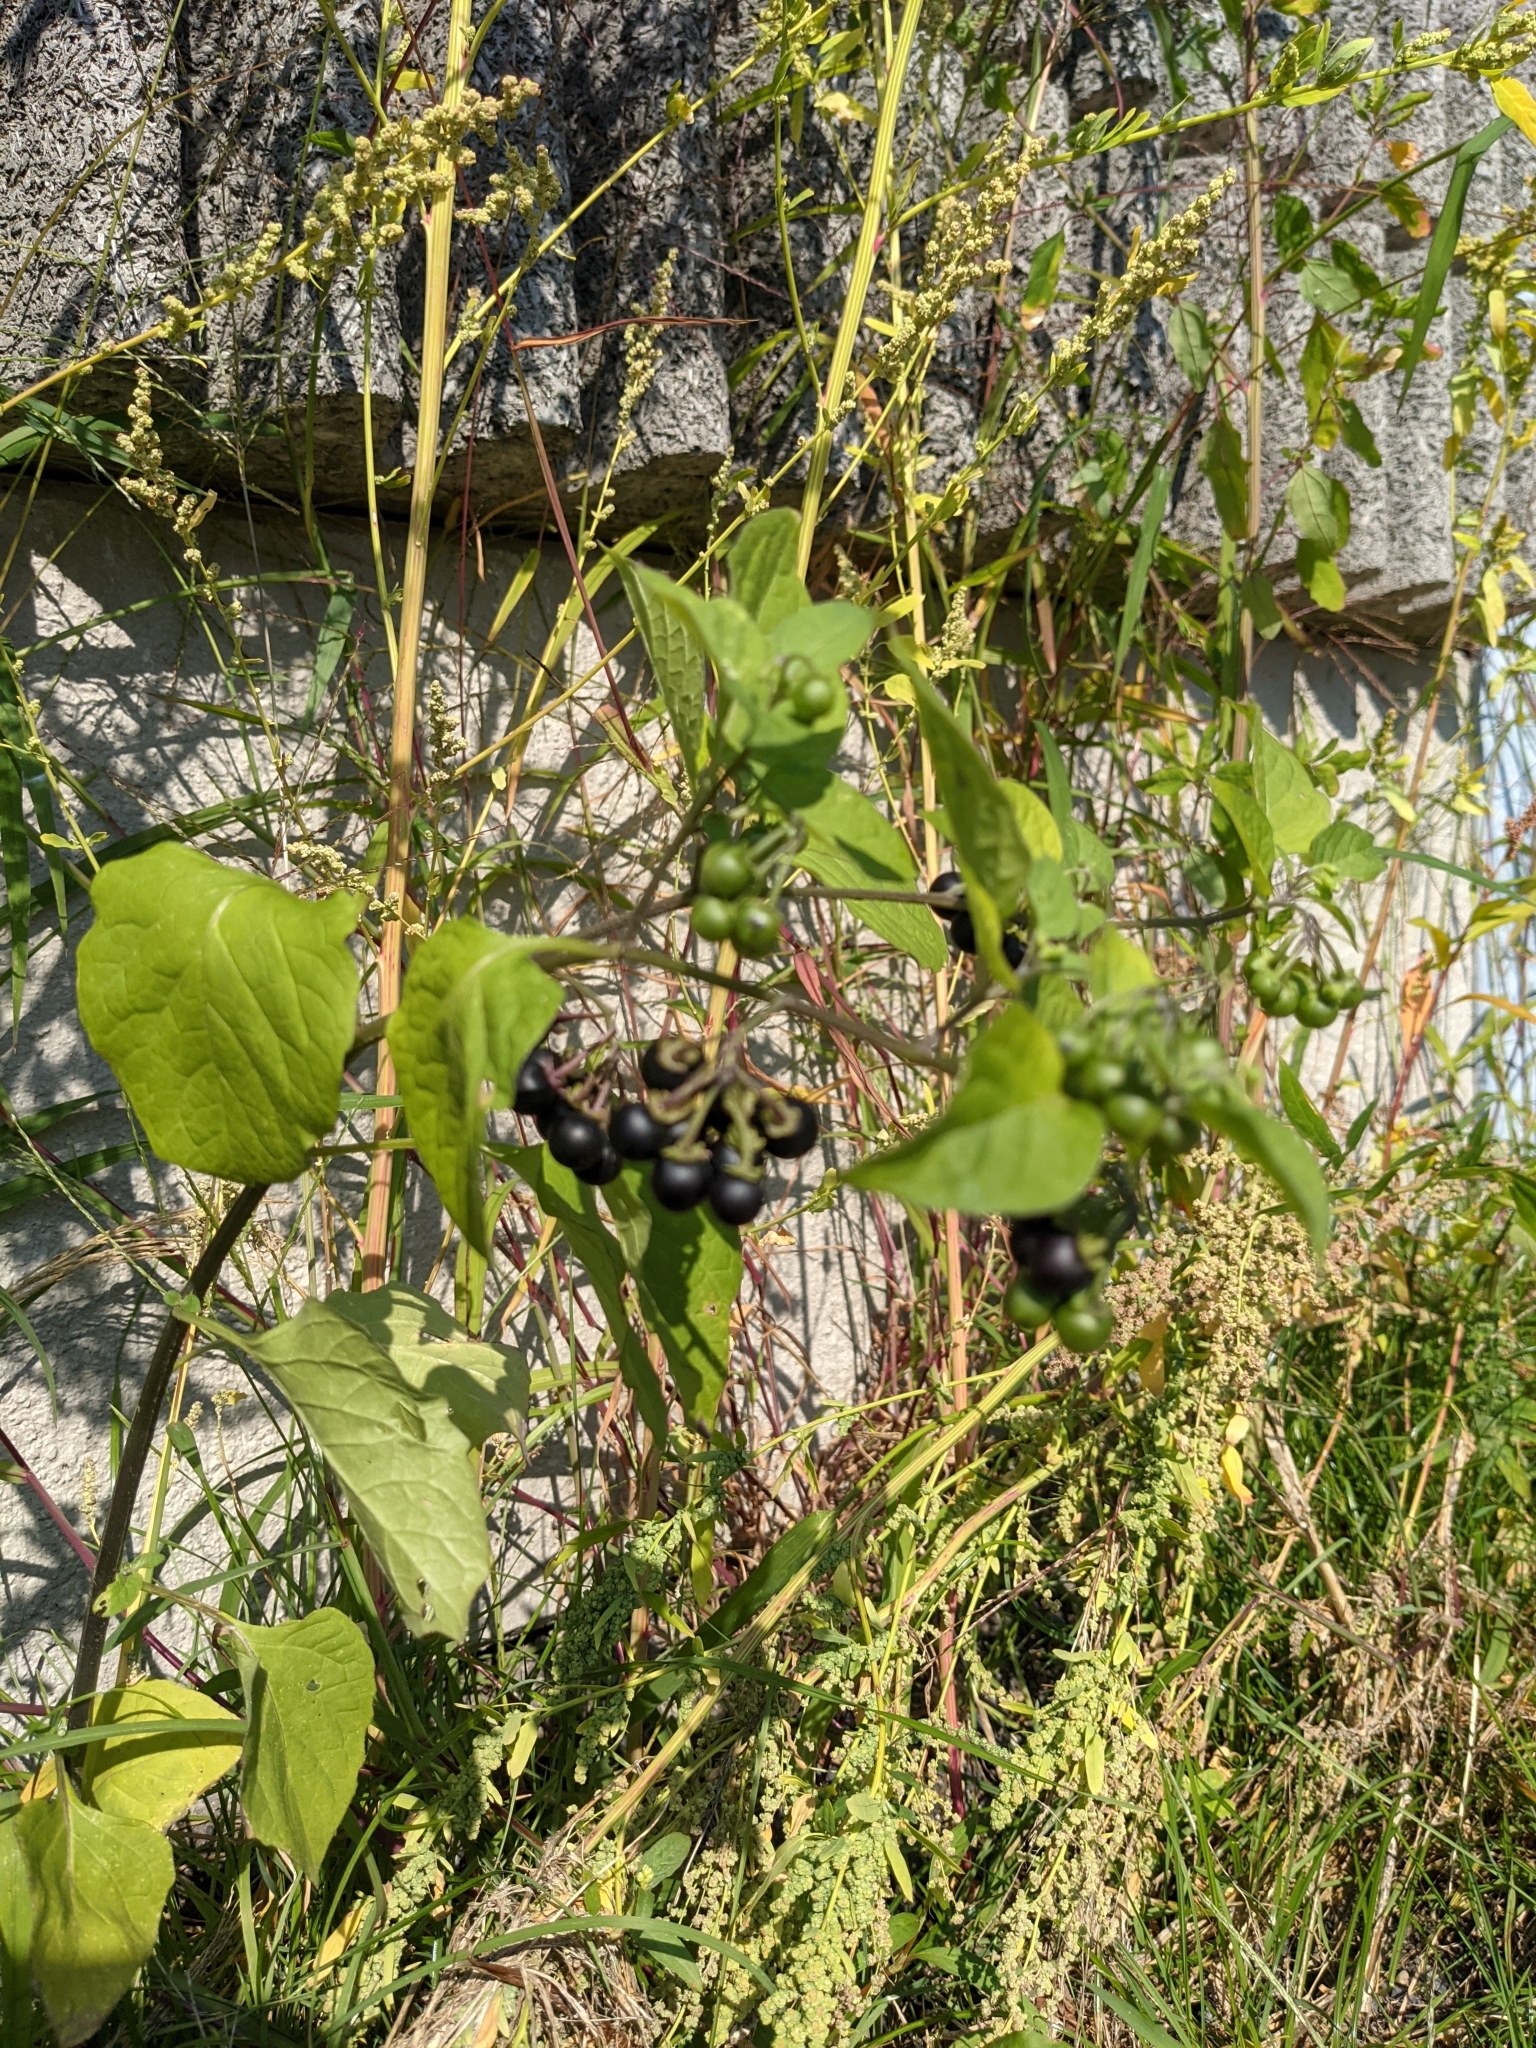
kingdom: Plantae
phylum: Tracheophyta
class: Magnoliopsida
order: Solanales
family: Solanaceae
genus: Solanum
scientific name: Solanum nigrum
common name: Black nightshade
